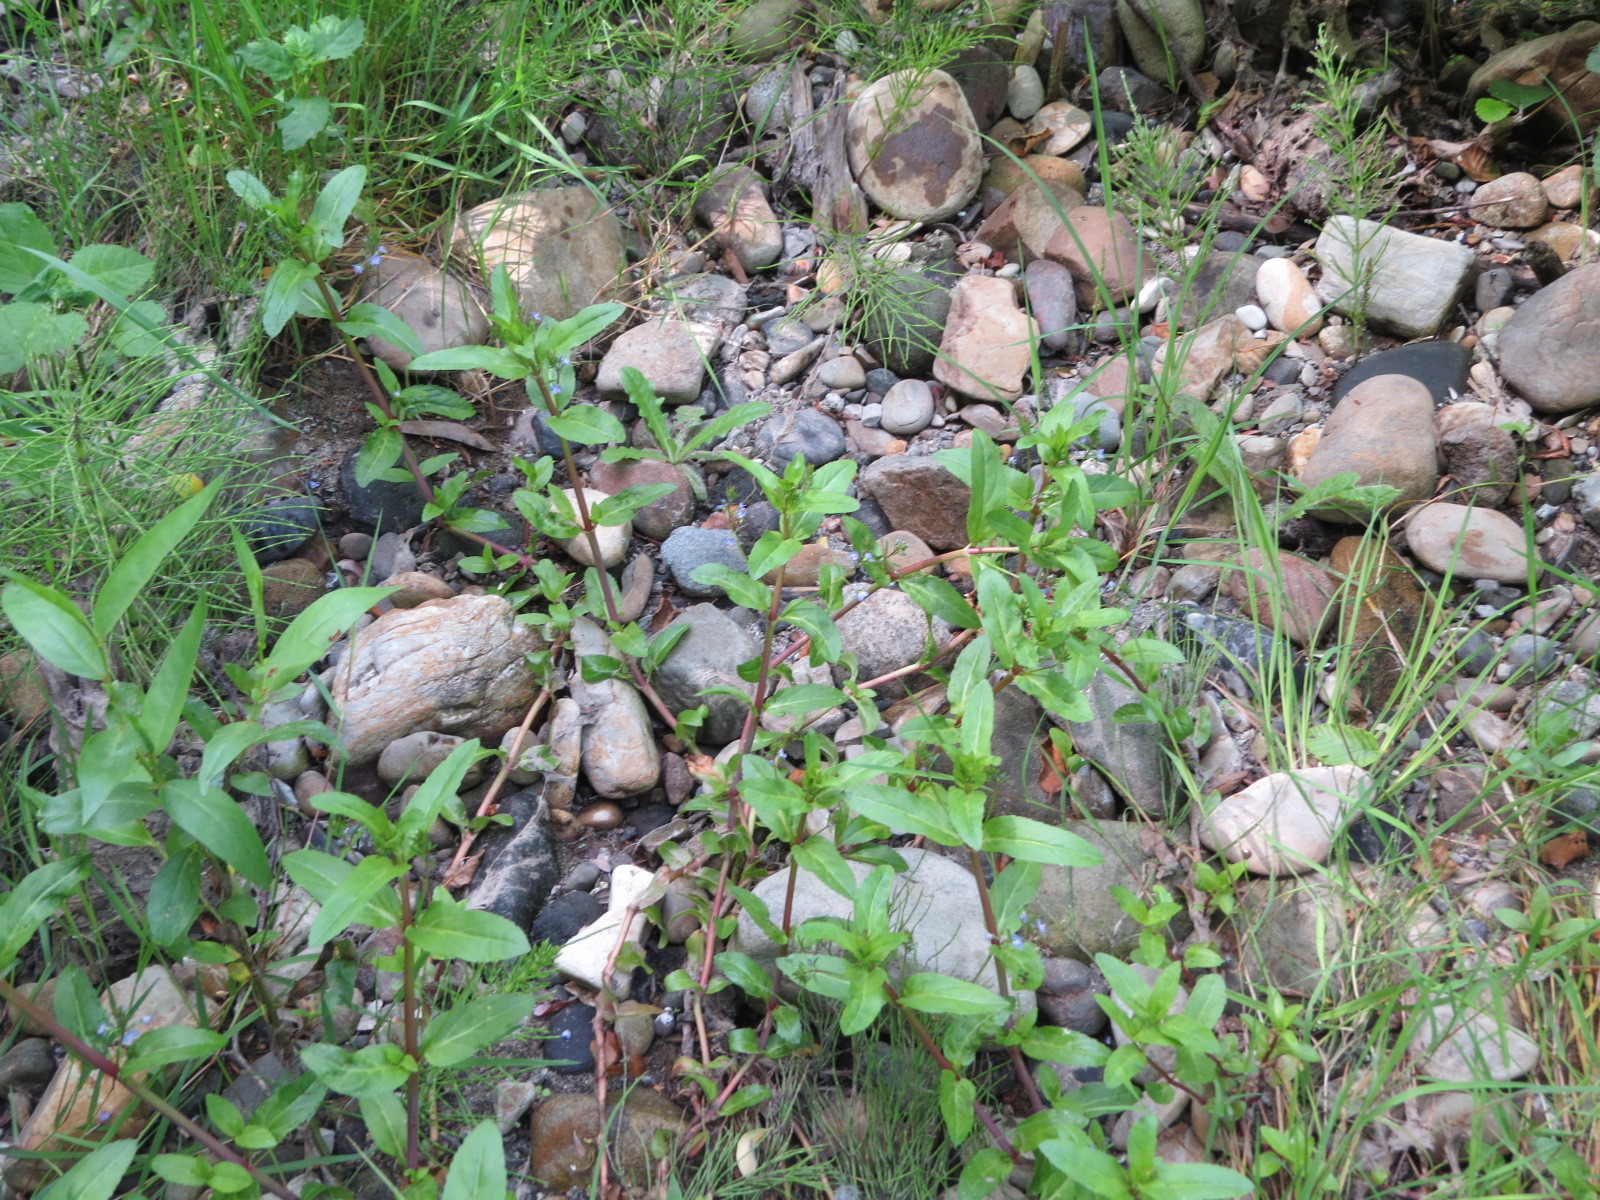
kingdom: Plantae
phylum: Tracheophyta
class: Magnoliopsida
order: Lamiales
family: Plantaginaceae
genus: Veronica
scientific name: Veronica americana
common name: American brooklime
